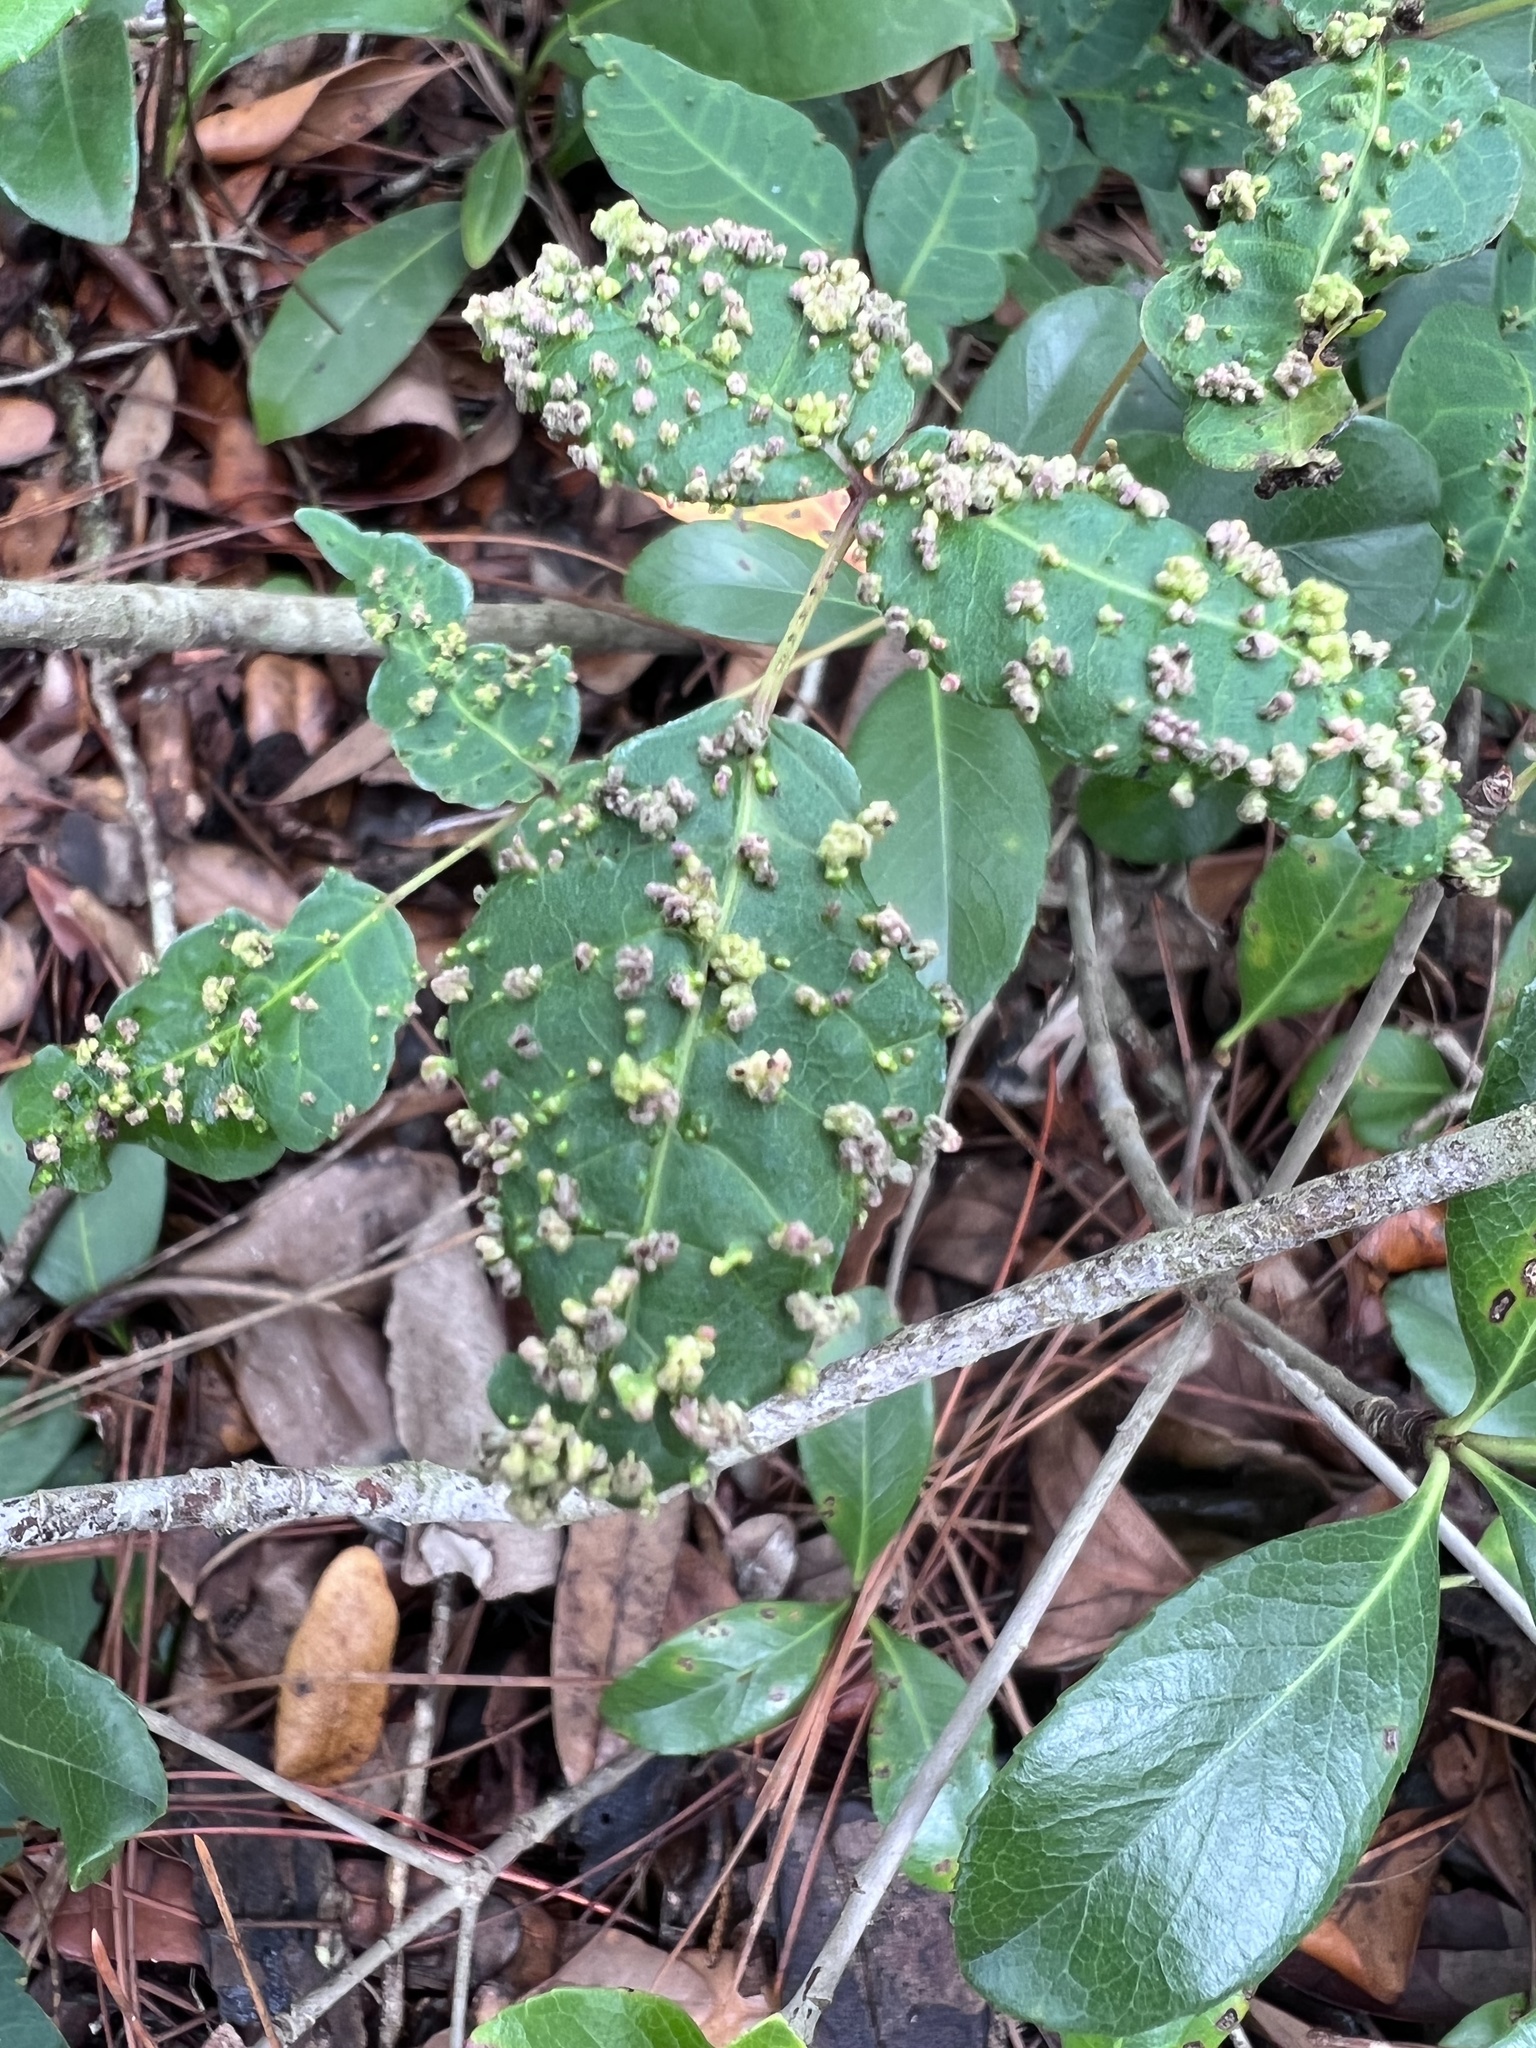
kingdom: Animalia
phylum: Arthropoda
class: Arachnida
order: Trombidiformes
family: Eriophyidae
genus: Aculops
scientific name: Aculops
